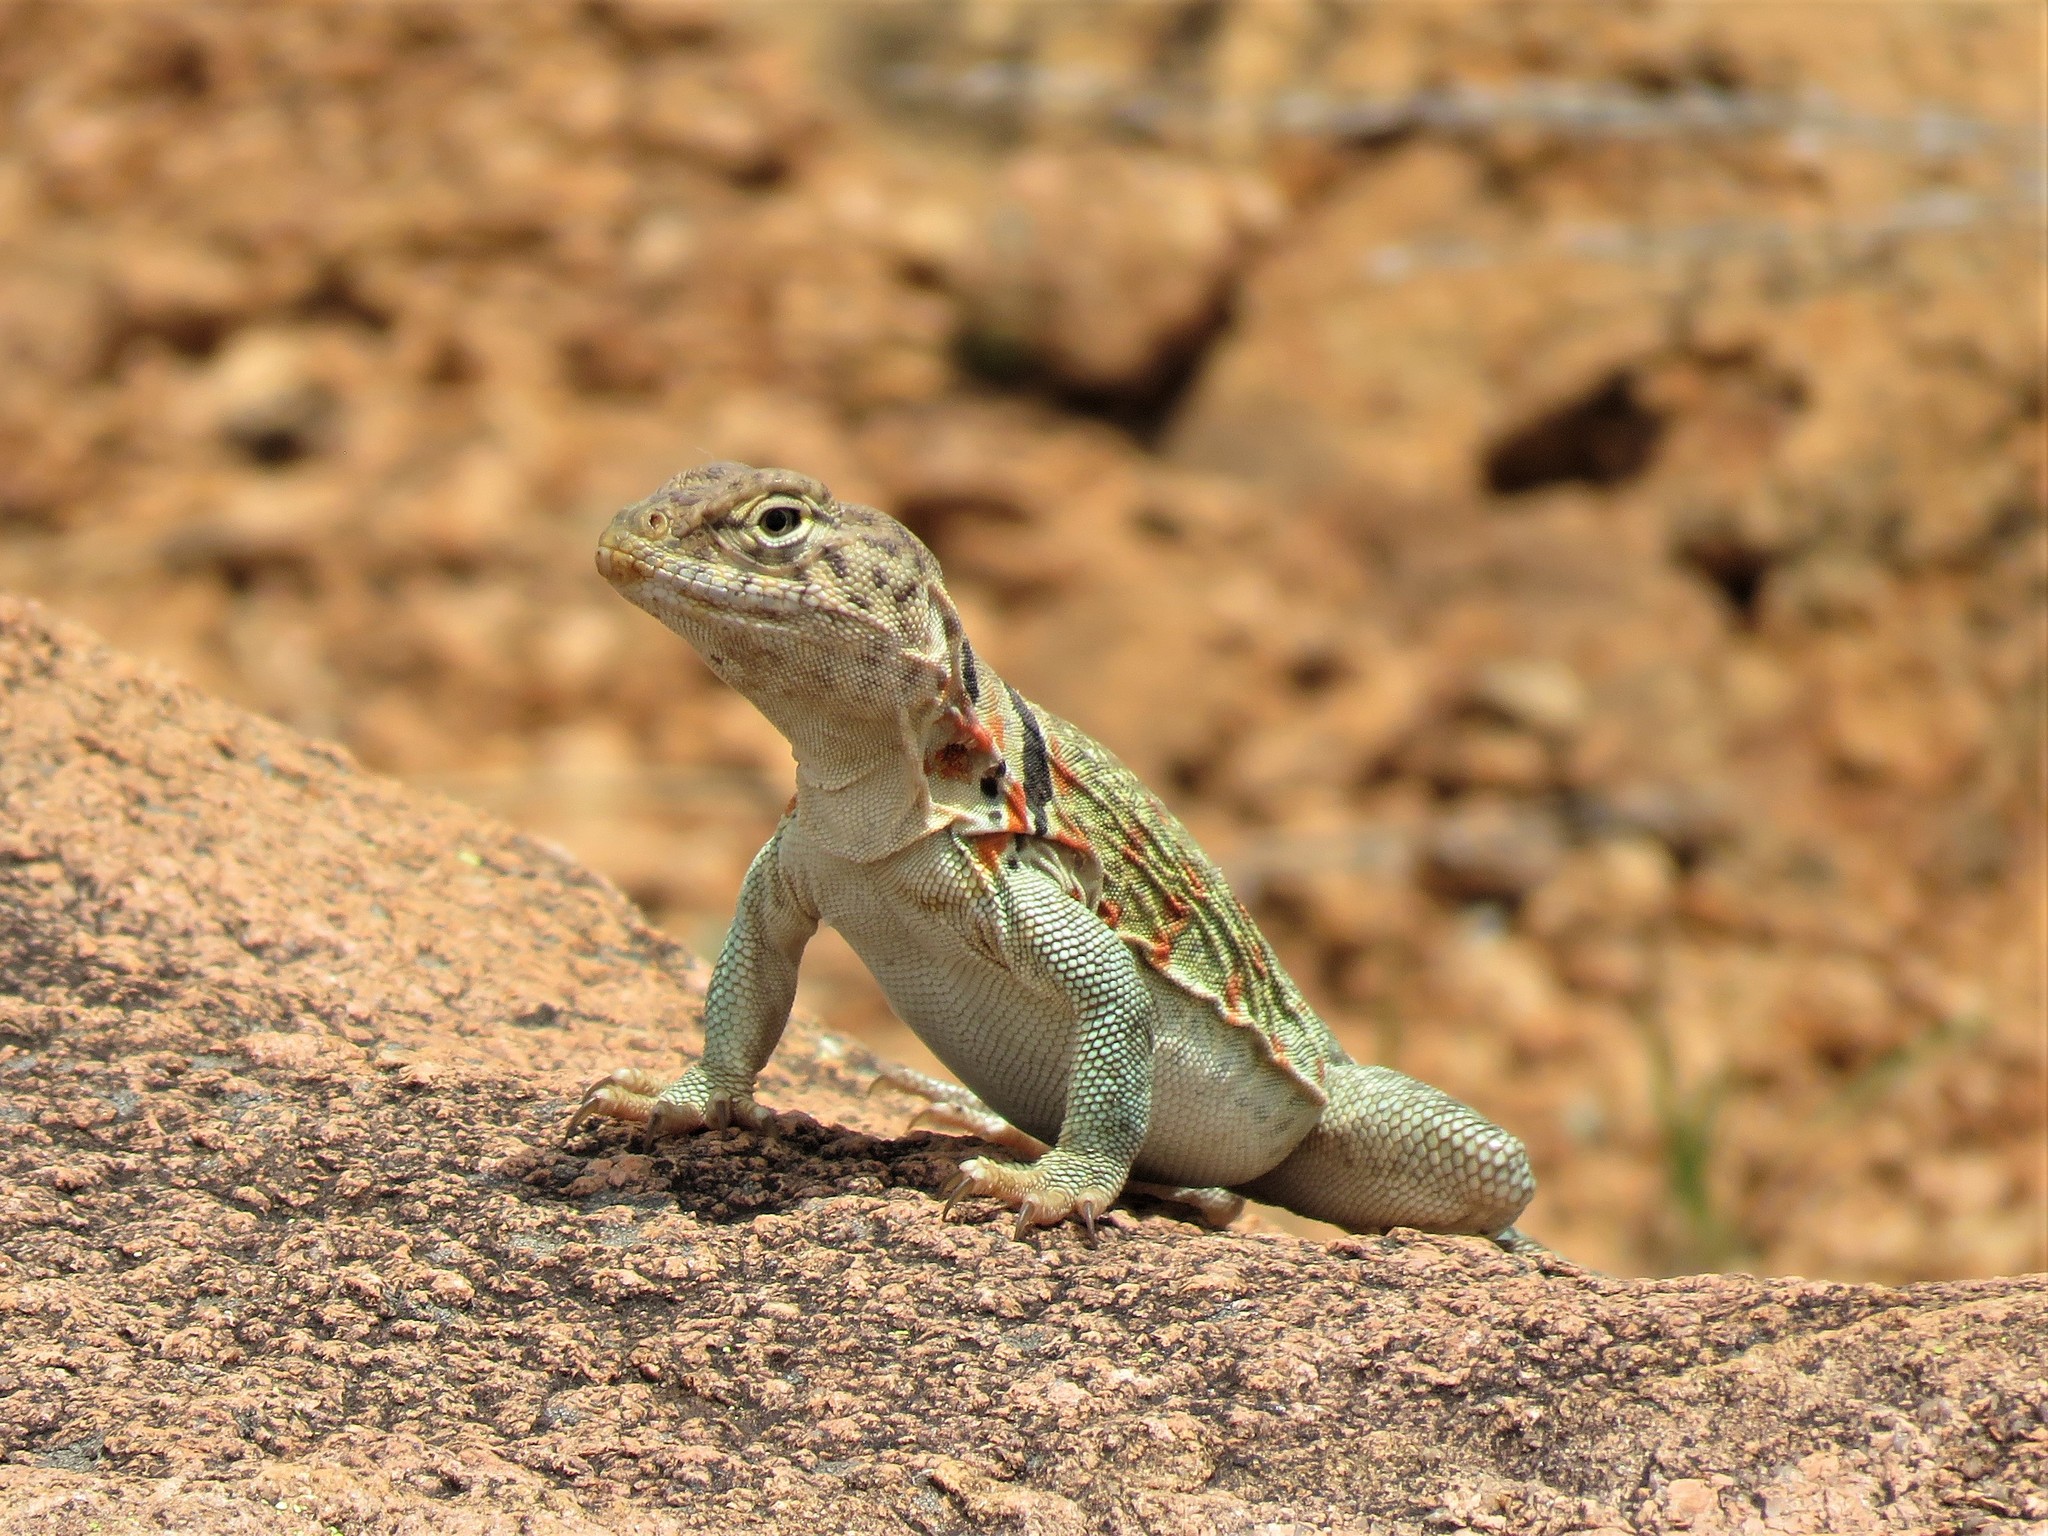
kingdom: Animalia
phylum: Chordata
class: Squamata
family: Crotaphytidae
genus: Crotaphytus
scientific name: Crotaphytus collaris
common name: Collared lizard
